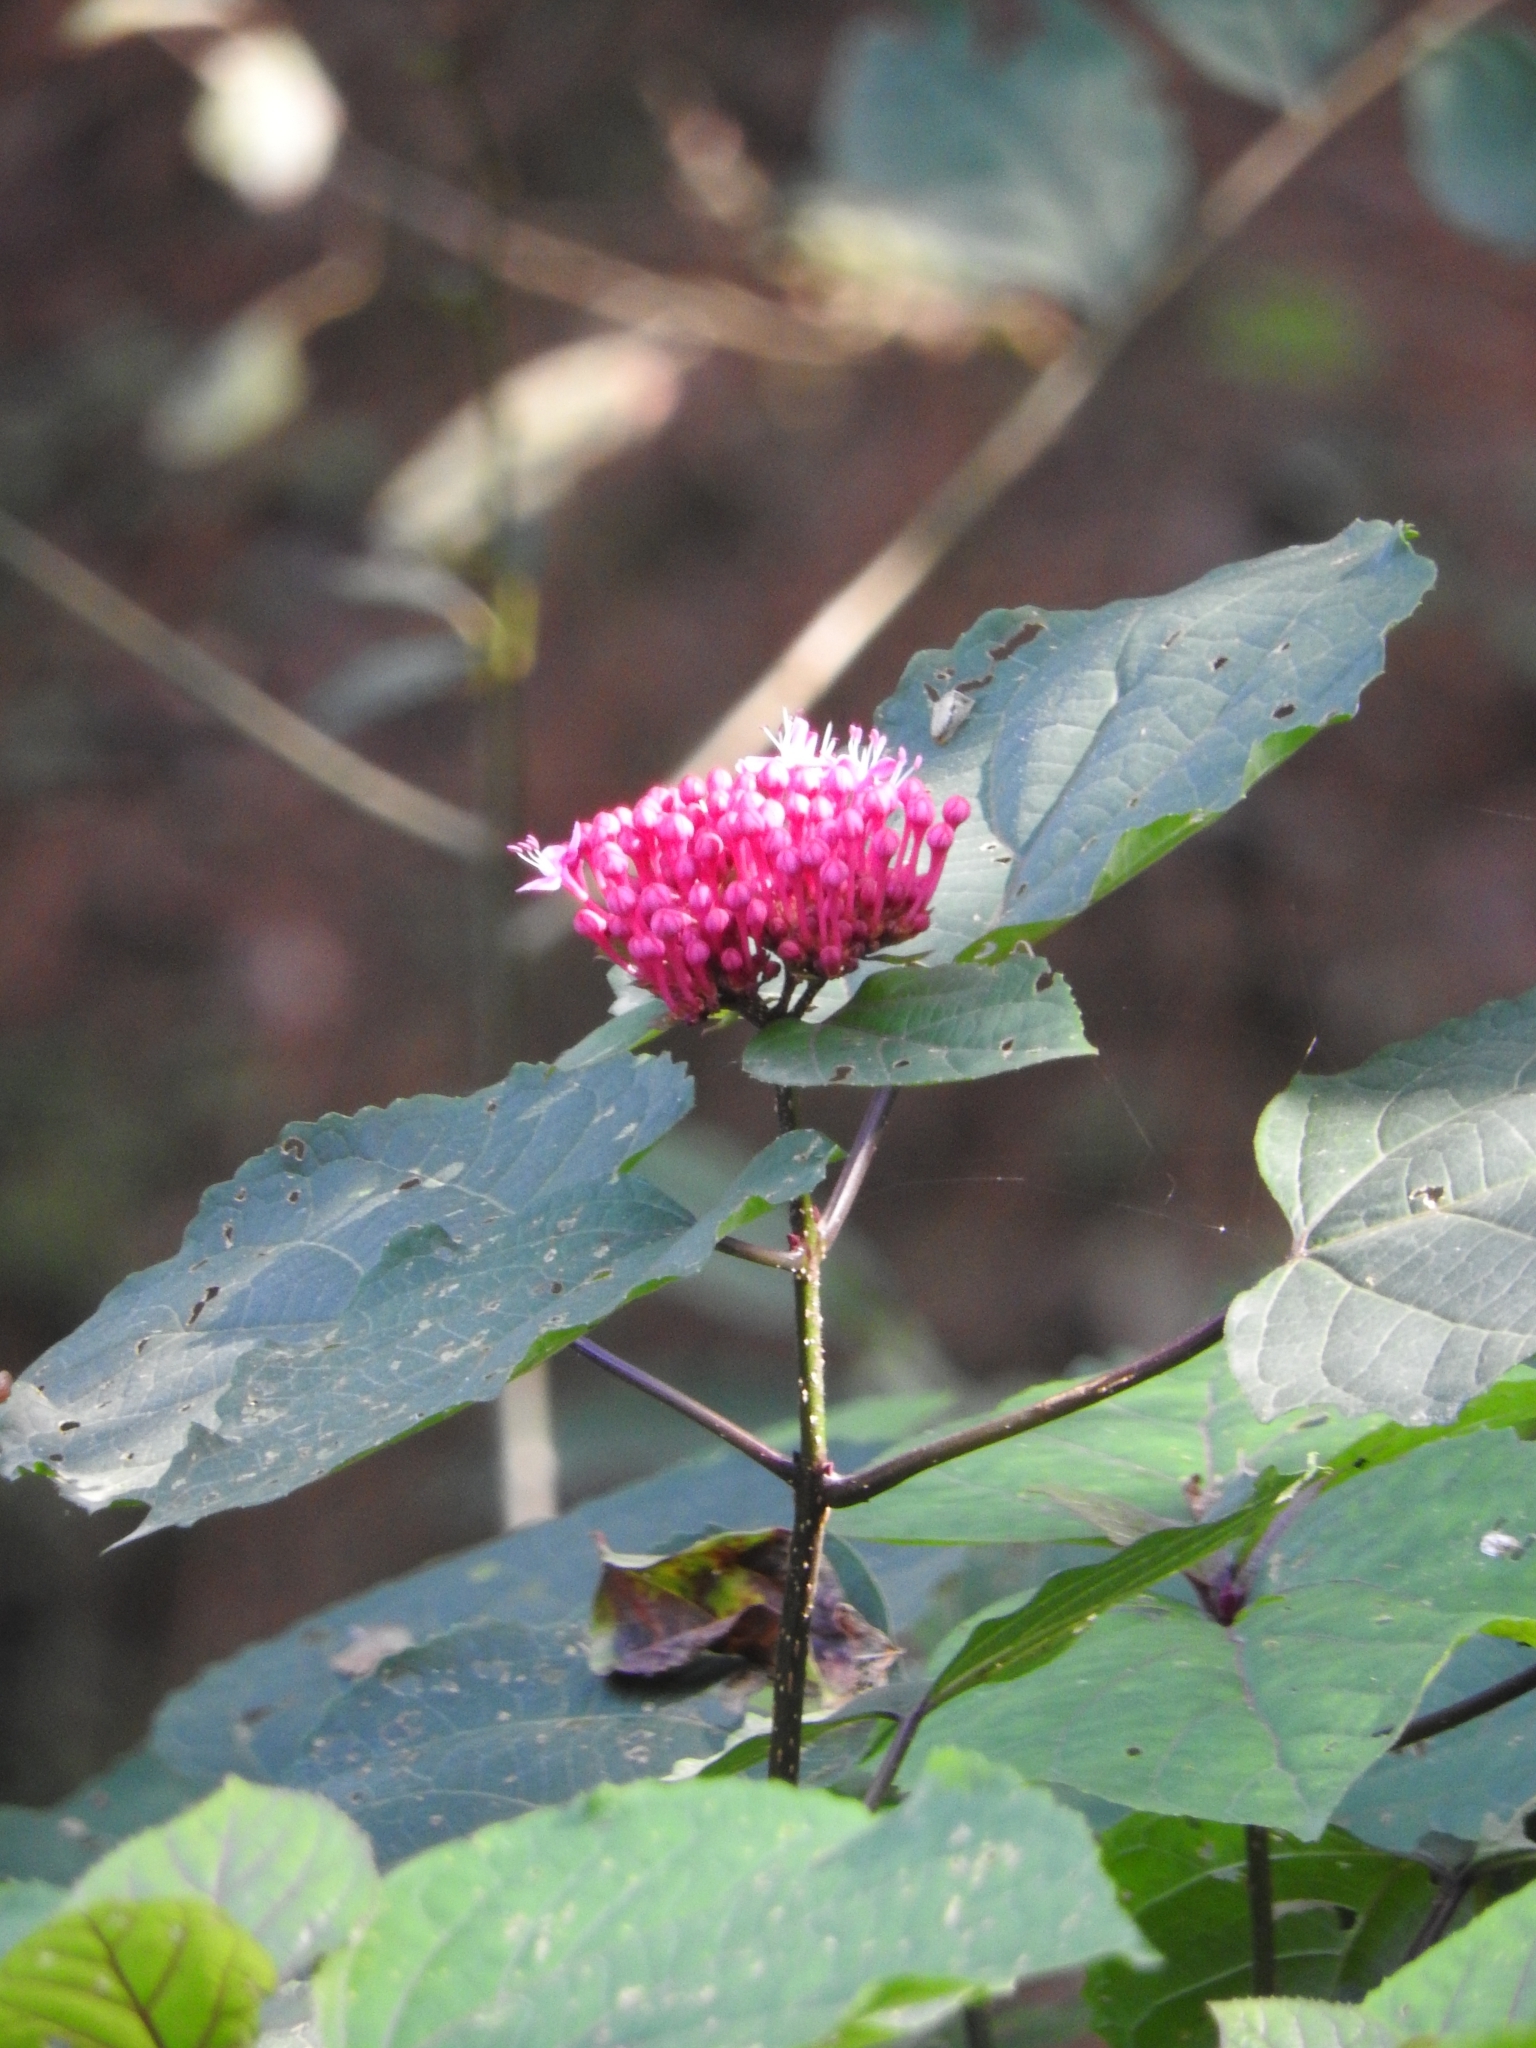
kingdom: Plantae
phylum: Tracheophyta
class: Magnoliopsida
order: Lamiales
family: Lamiaceae
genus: Clerodendrum
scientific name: Clerodendrum bungei
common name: Rose glorybower
